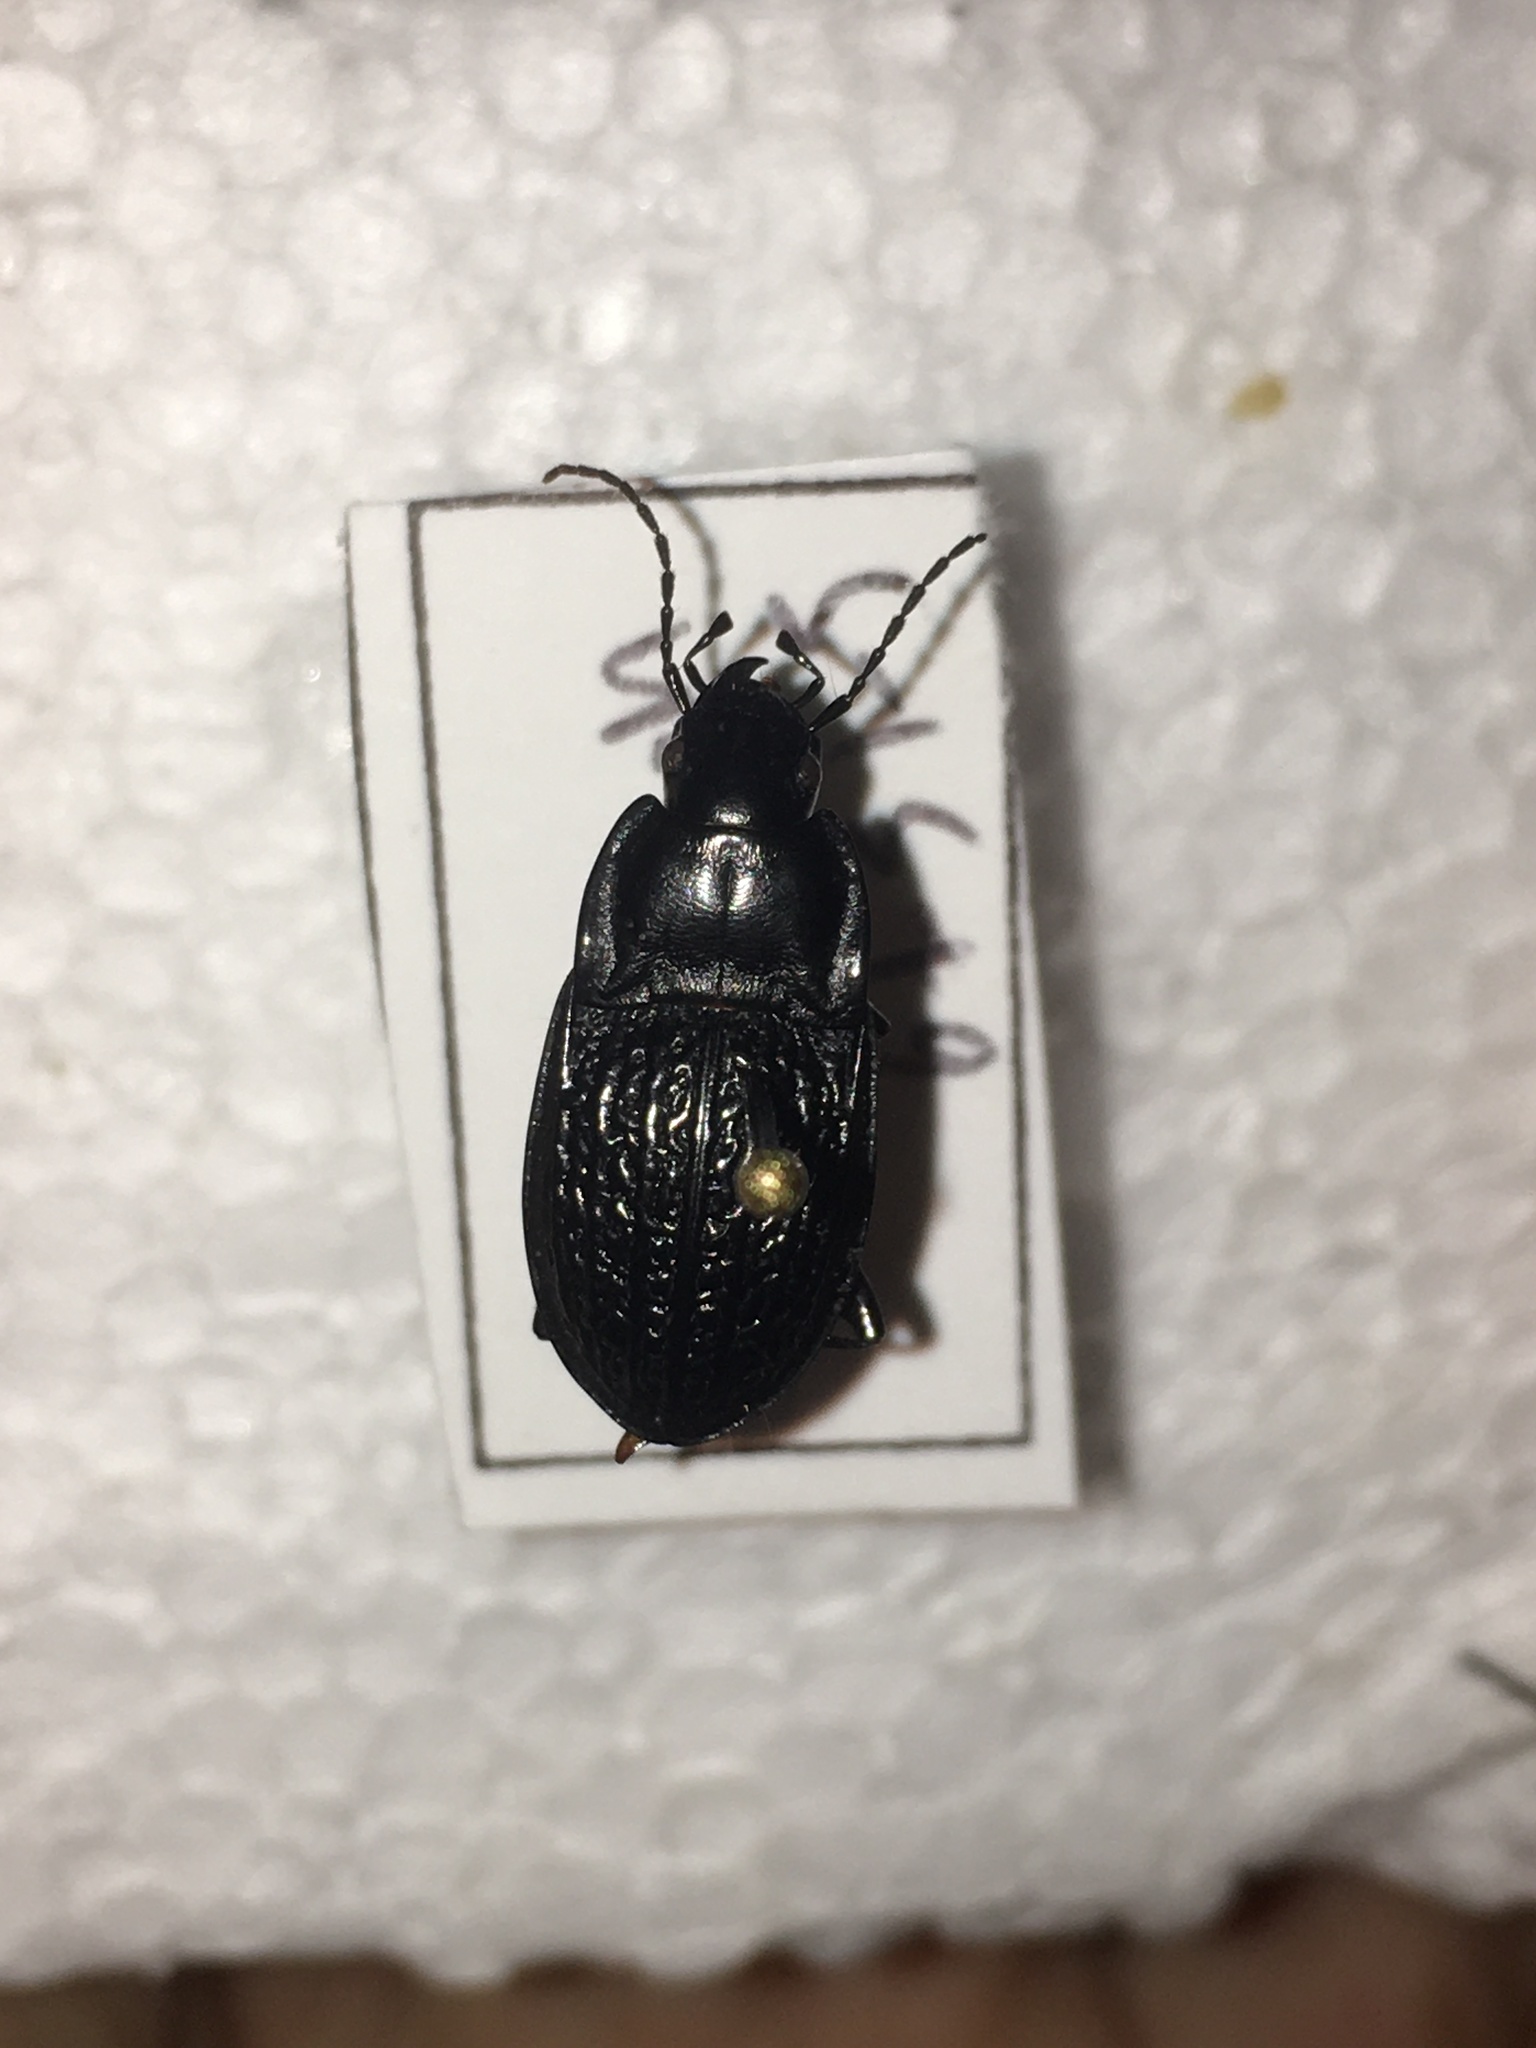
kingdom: Animalia
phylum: Arthropoda
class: Insecta
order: Coleoptera
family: Carabidae
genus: Dicaelus
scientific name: Dicaelus sculptilis
